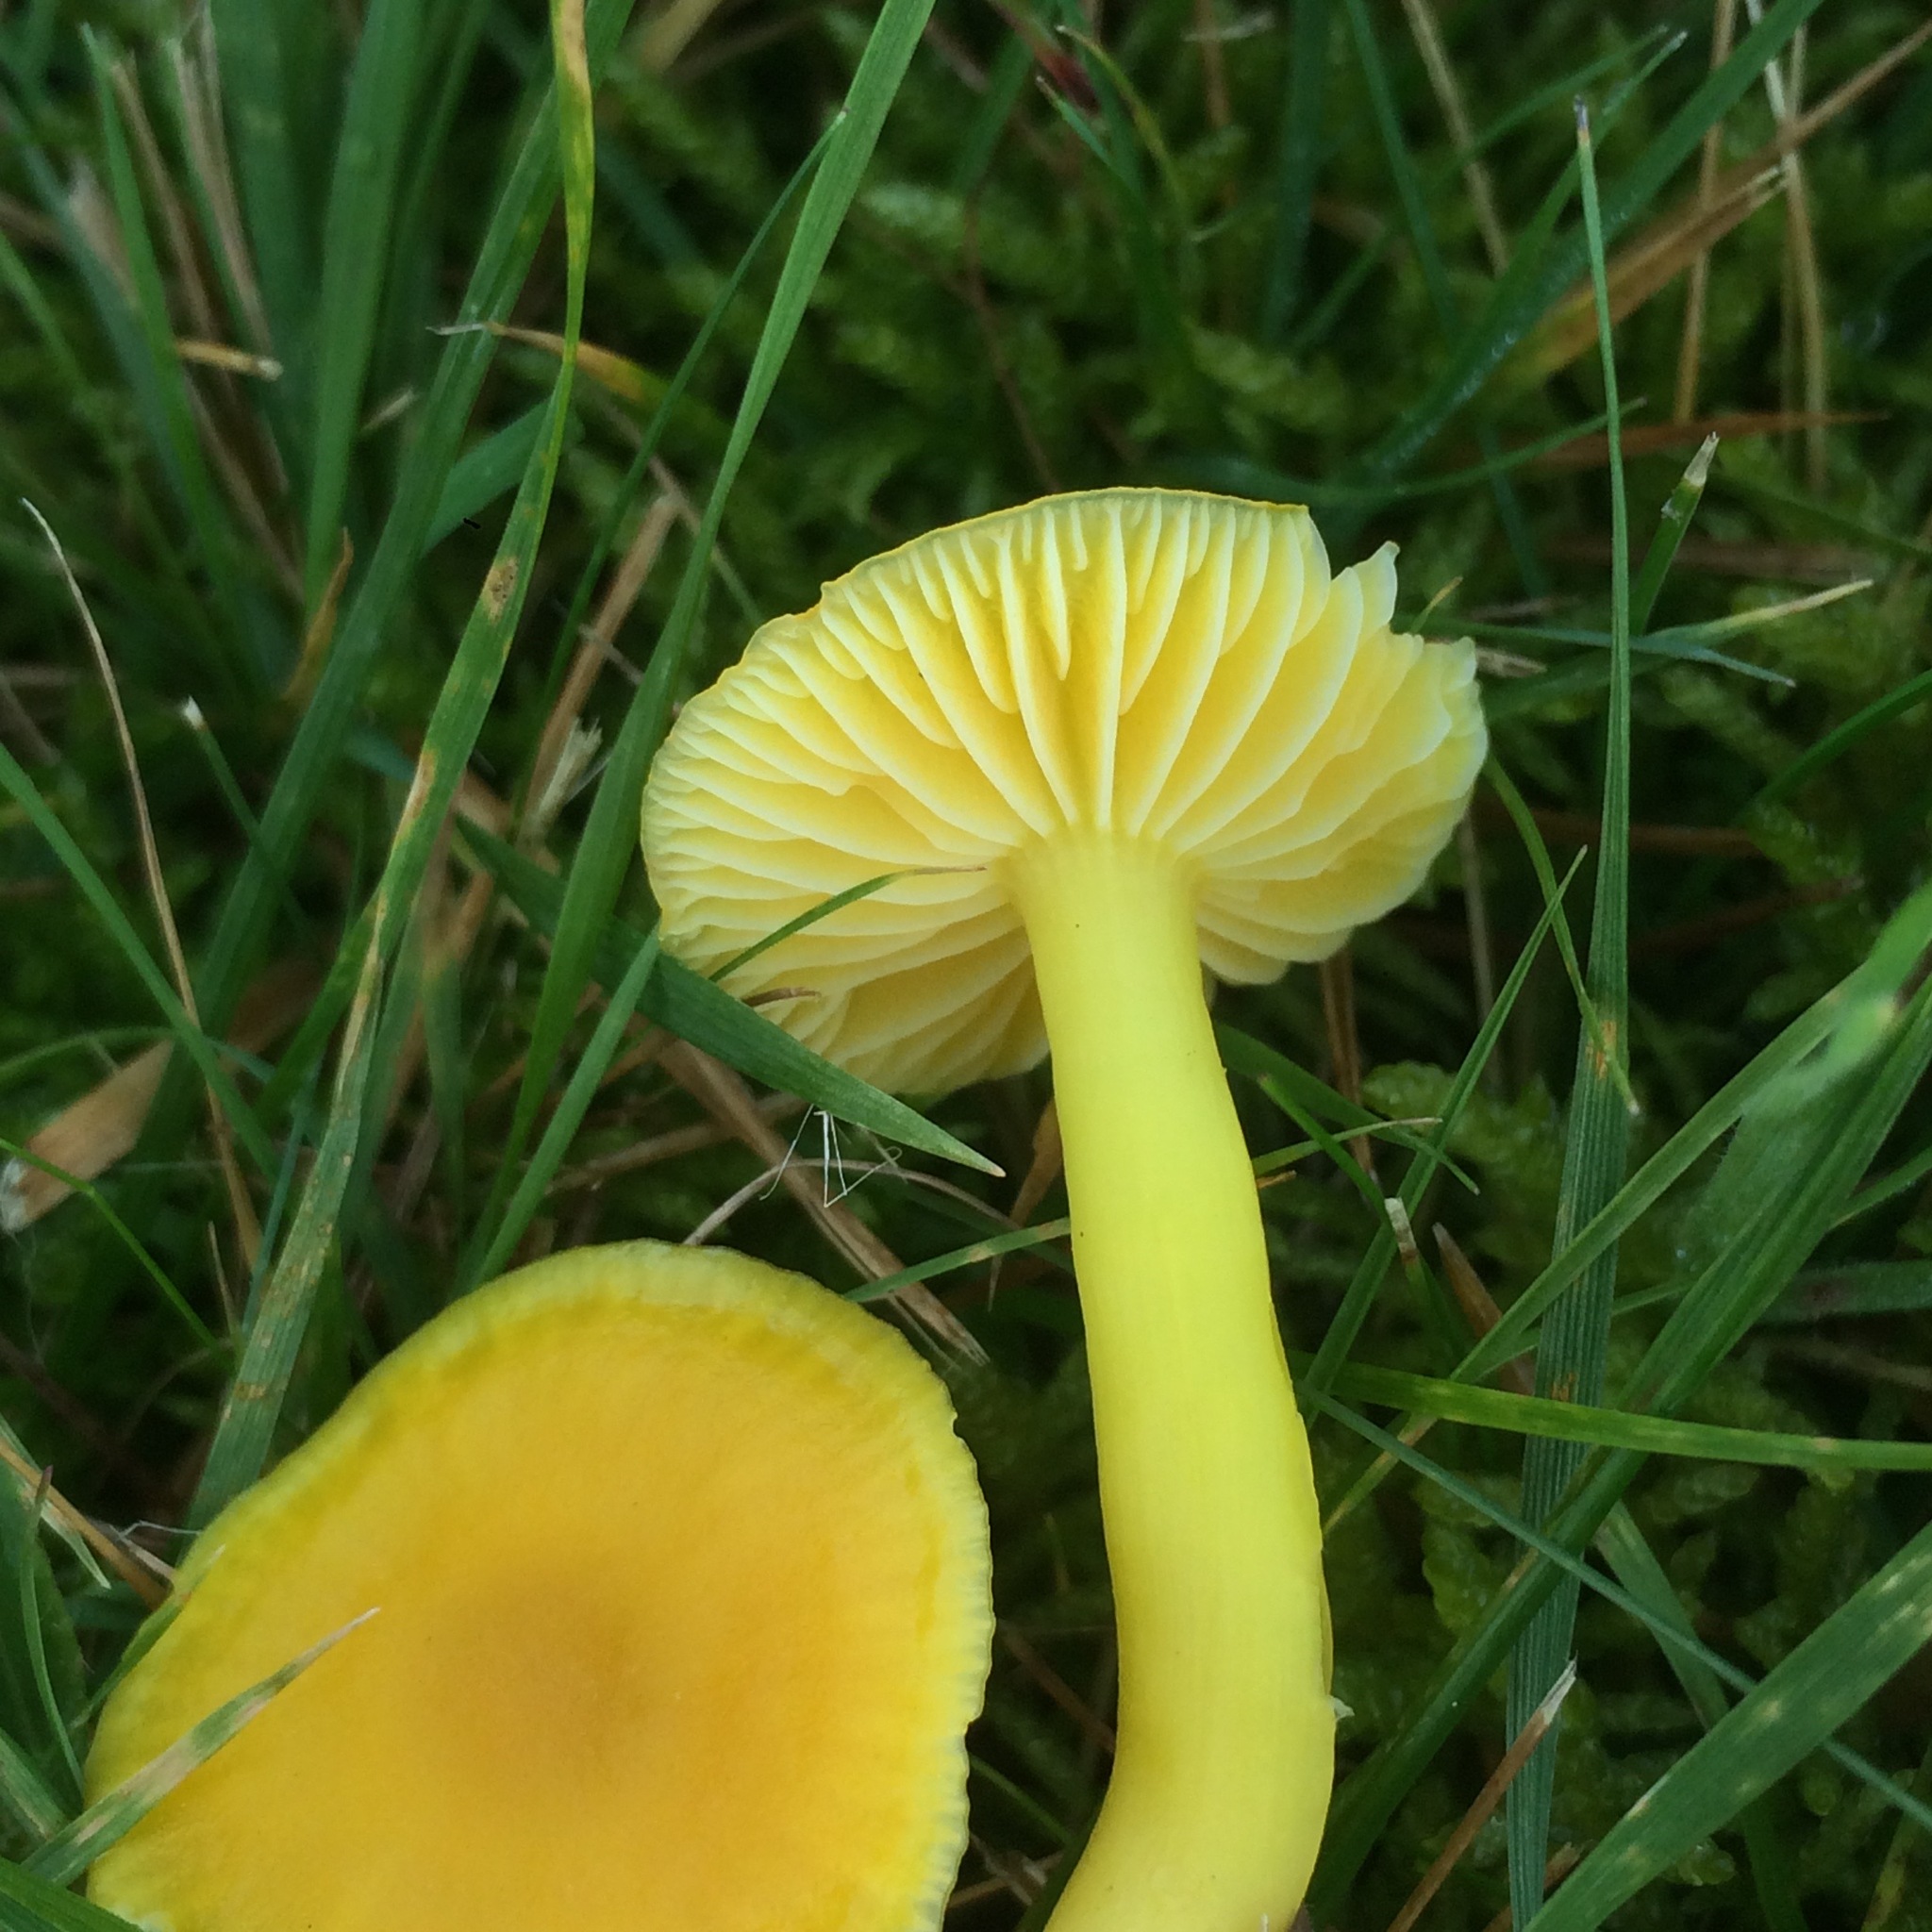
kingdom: Fungi
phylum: Basidiomycota
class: Agaricomycetes
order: Agaricales
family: Hygrophoraceae
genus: Hygrocybe
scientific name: Hygrocybe ceracea
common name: Butter waxcap
